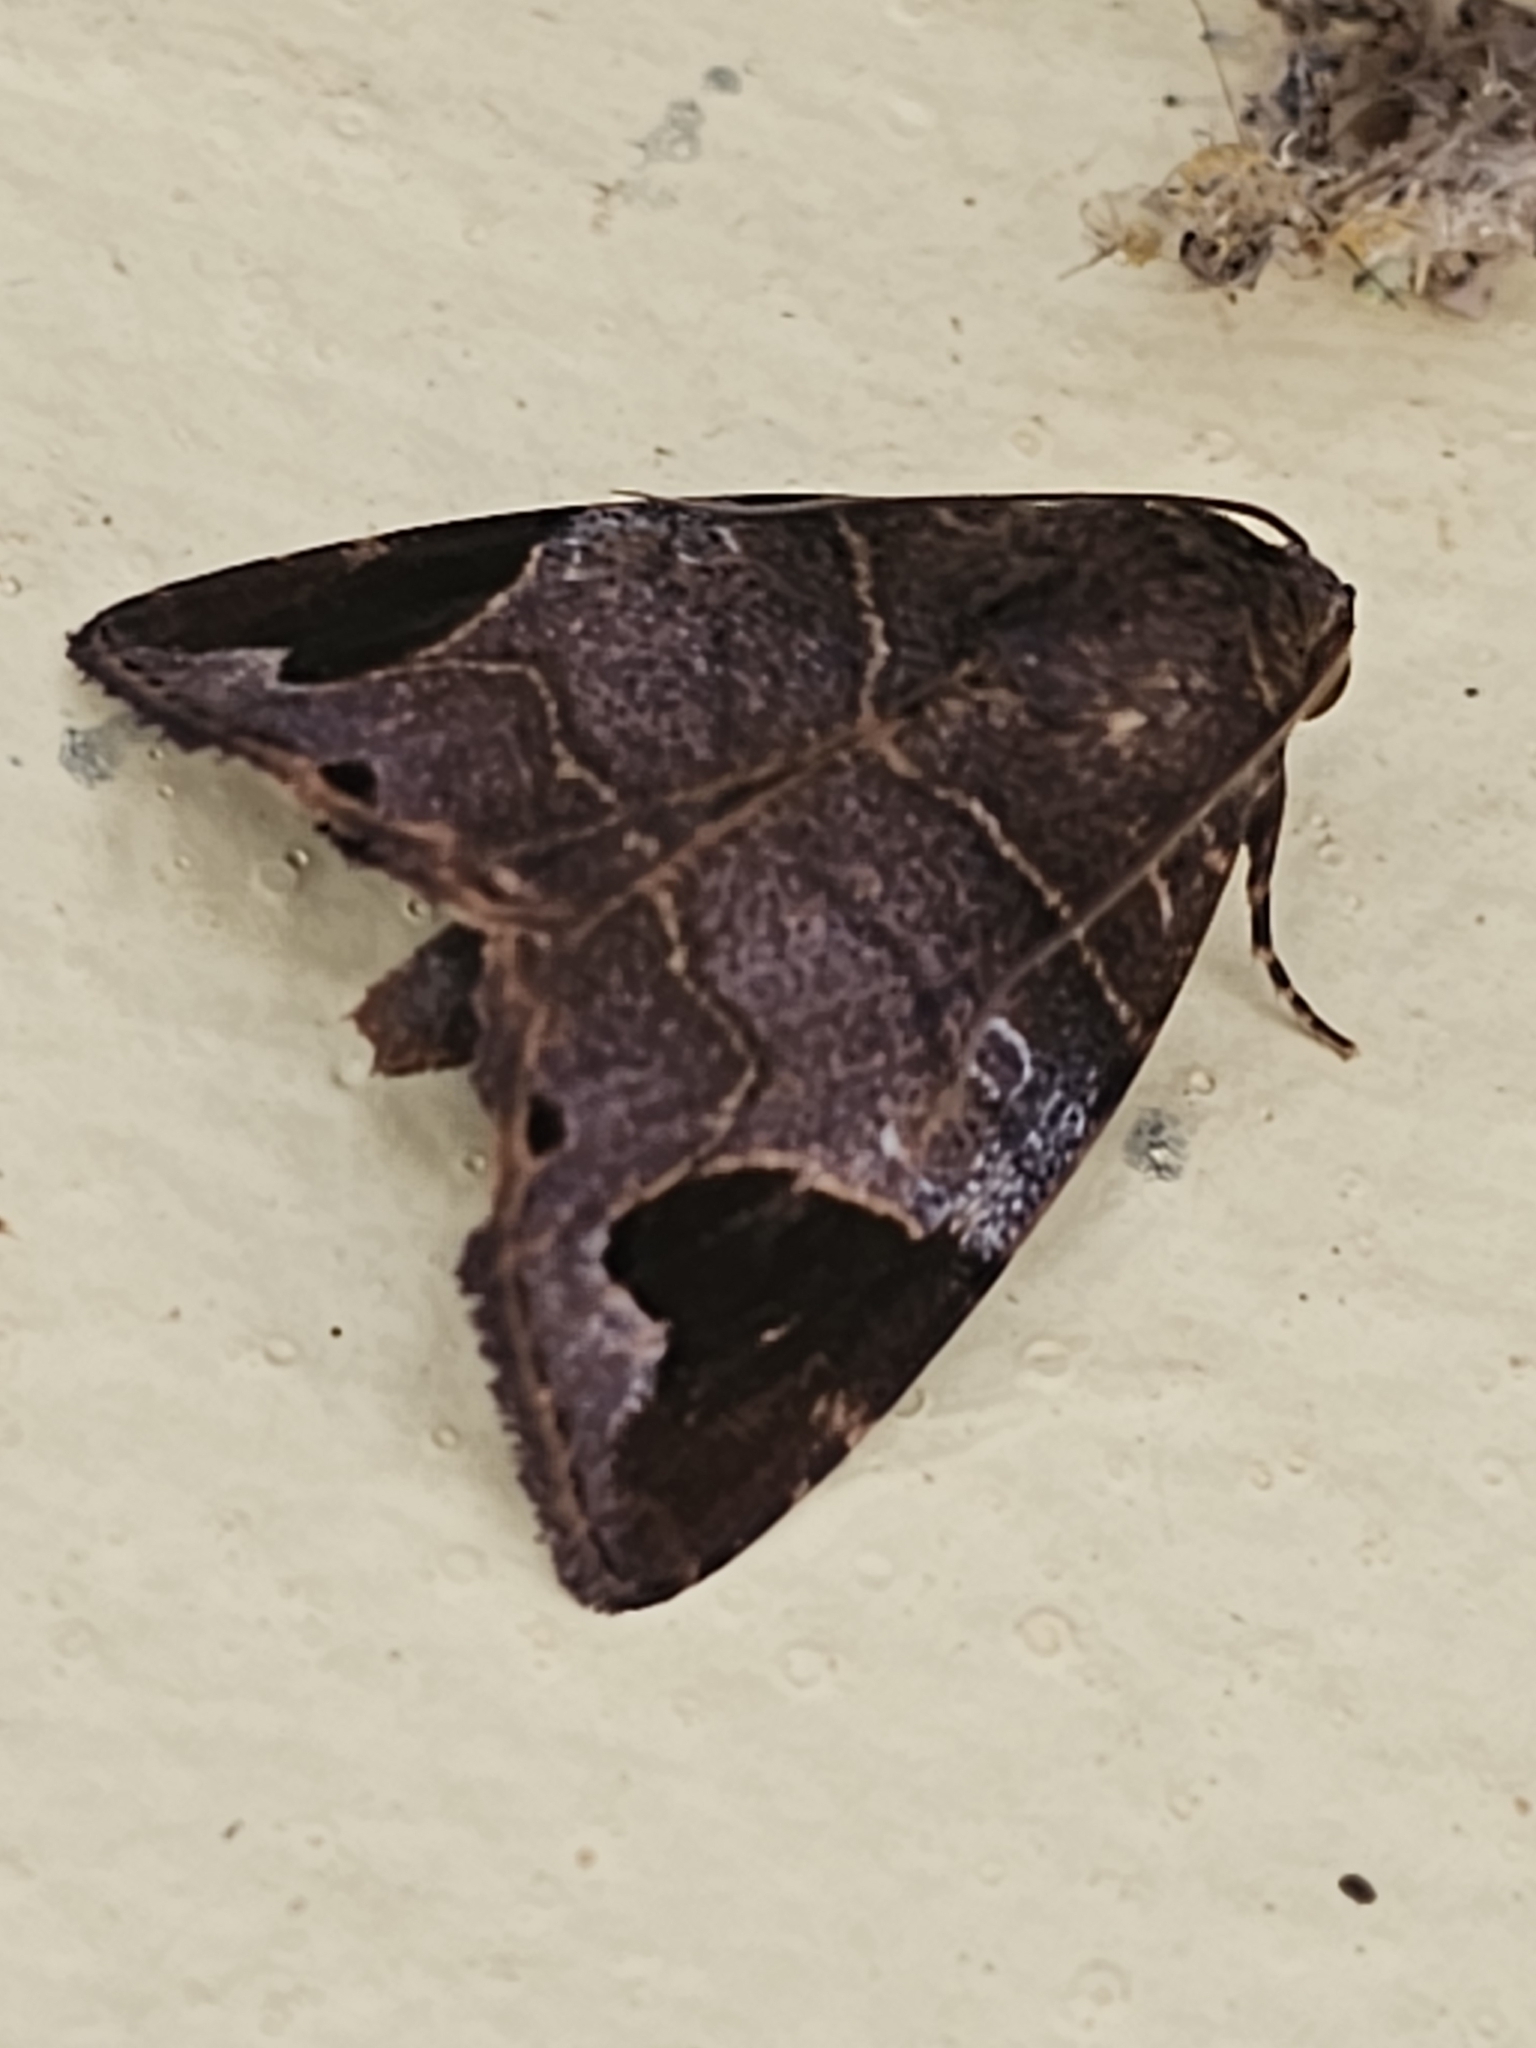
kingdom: Animalia
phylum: Arthropoda
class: Insecta
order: Lepidoptera
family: Noctuidae
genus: Closteromorpha
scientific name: Closteromorpha reniplaga
